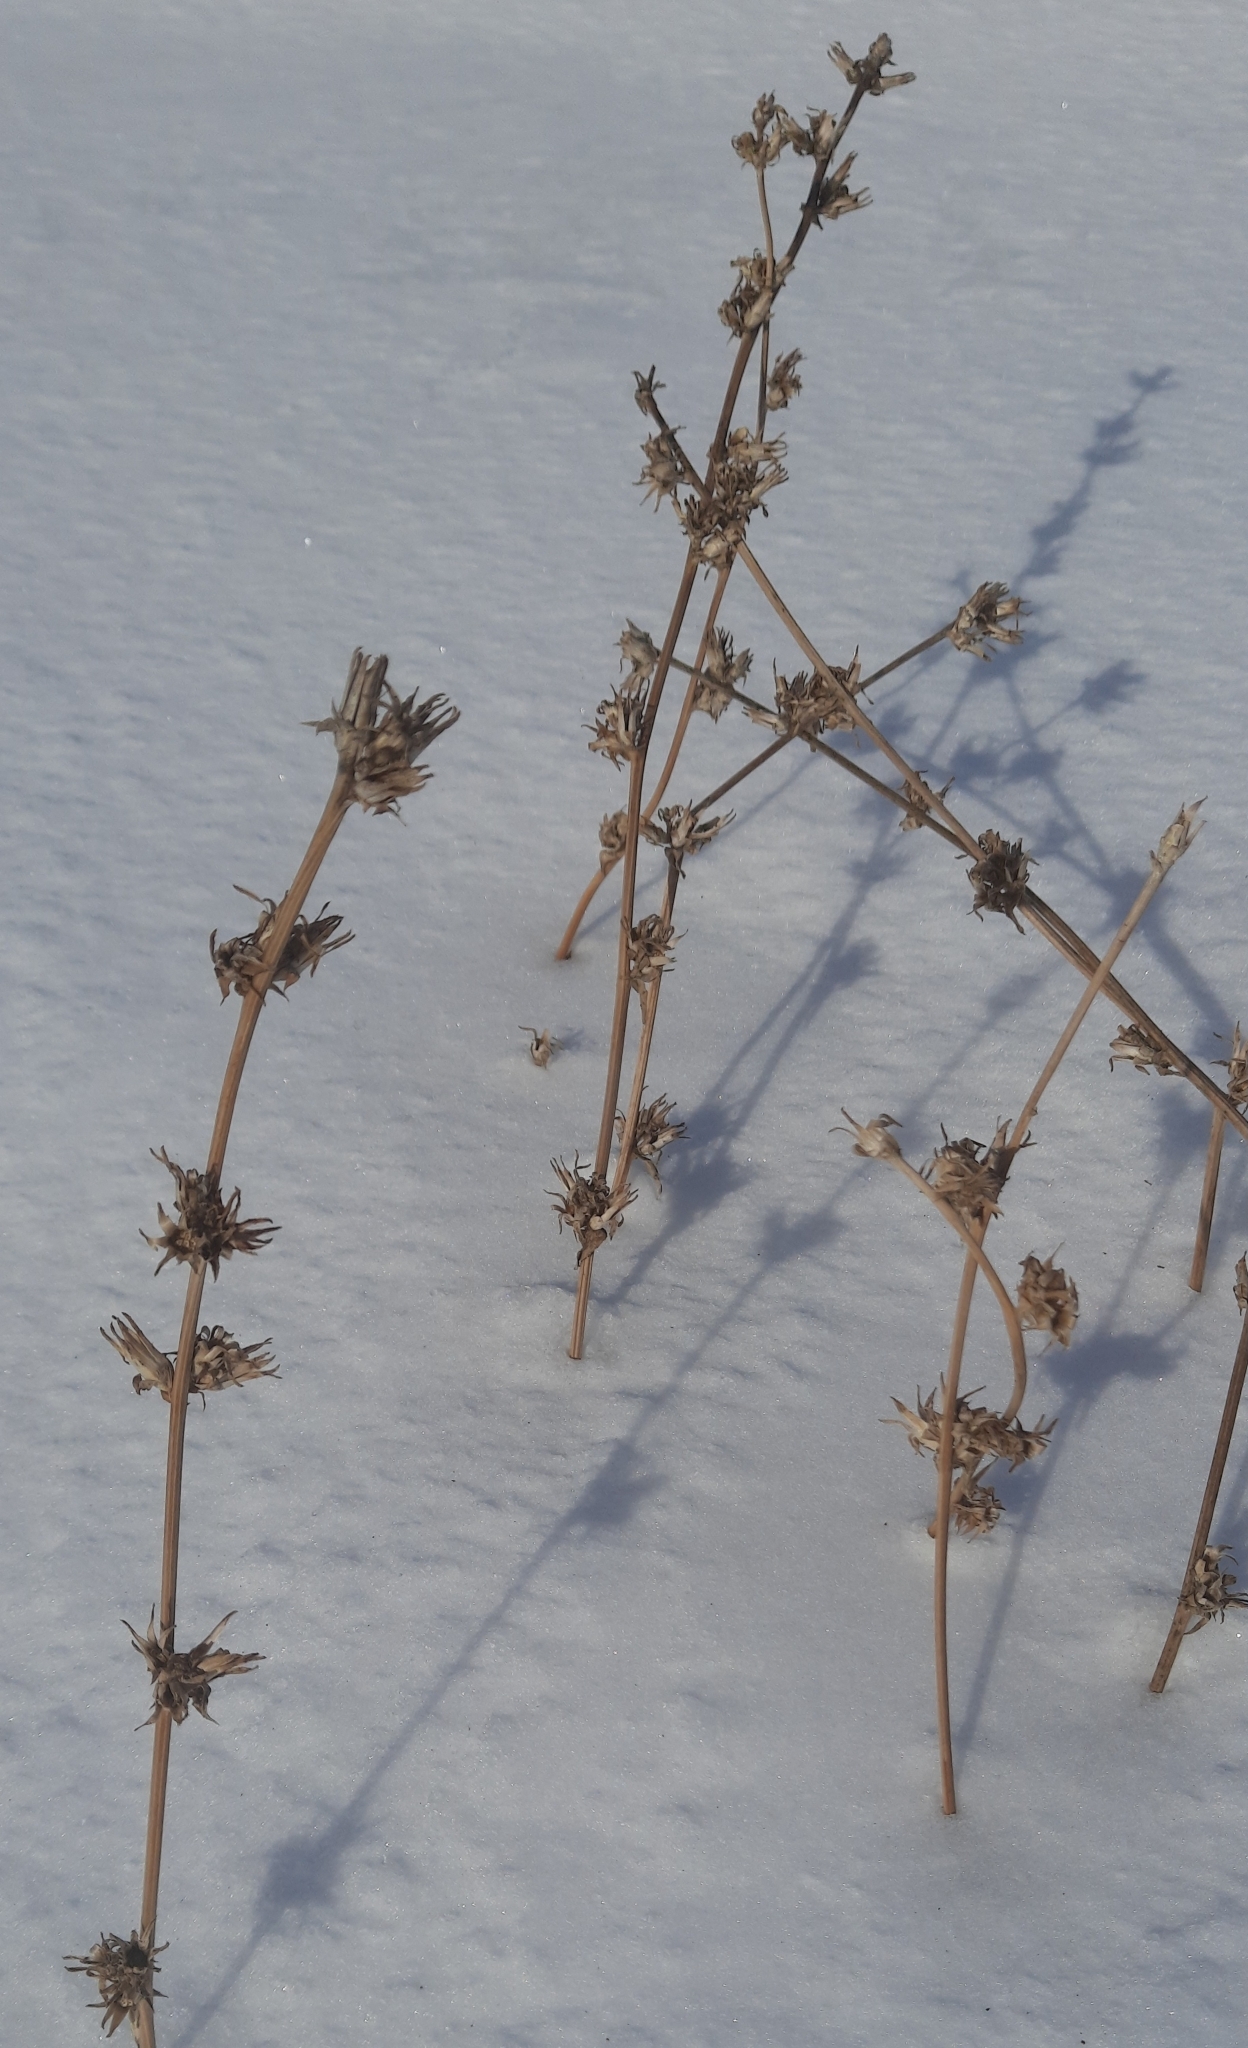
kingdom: Plantae
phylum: Tracheophyta
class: Magnoliopsida
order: Asterales
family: Asteraceae
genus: Cichorium
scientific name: Cichorium intybus
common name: Chicory
